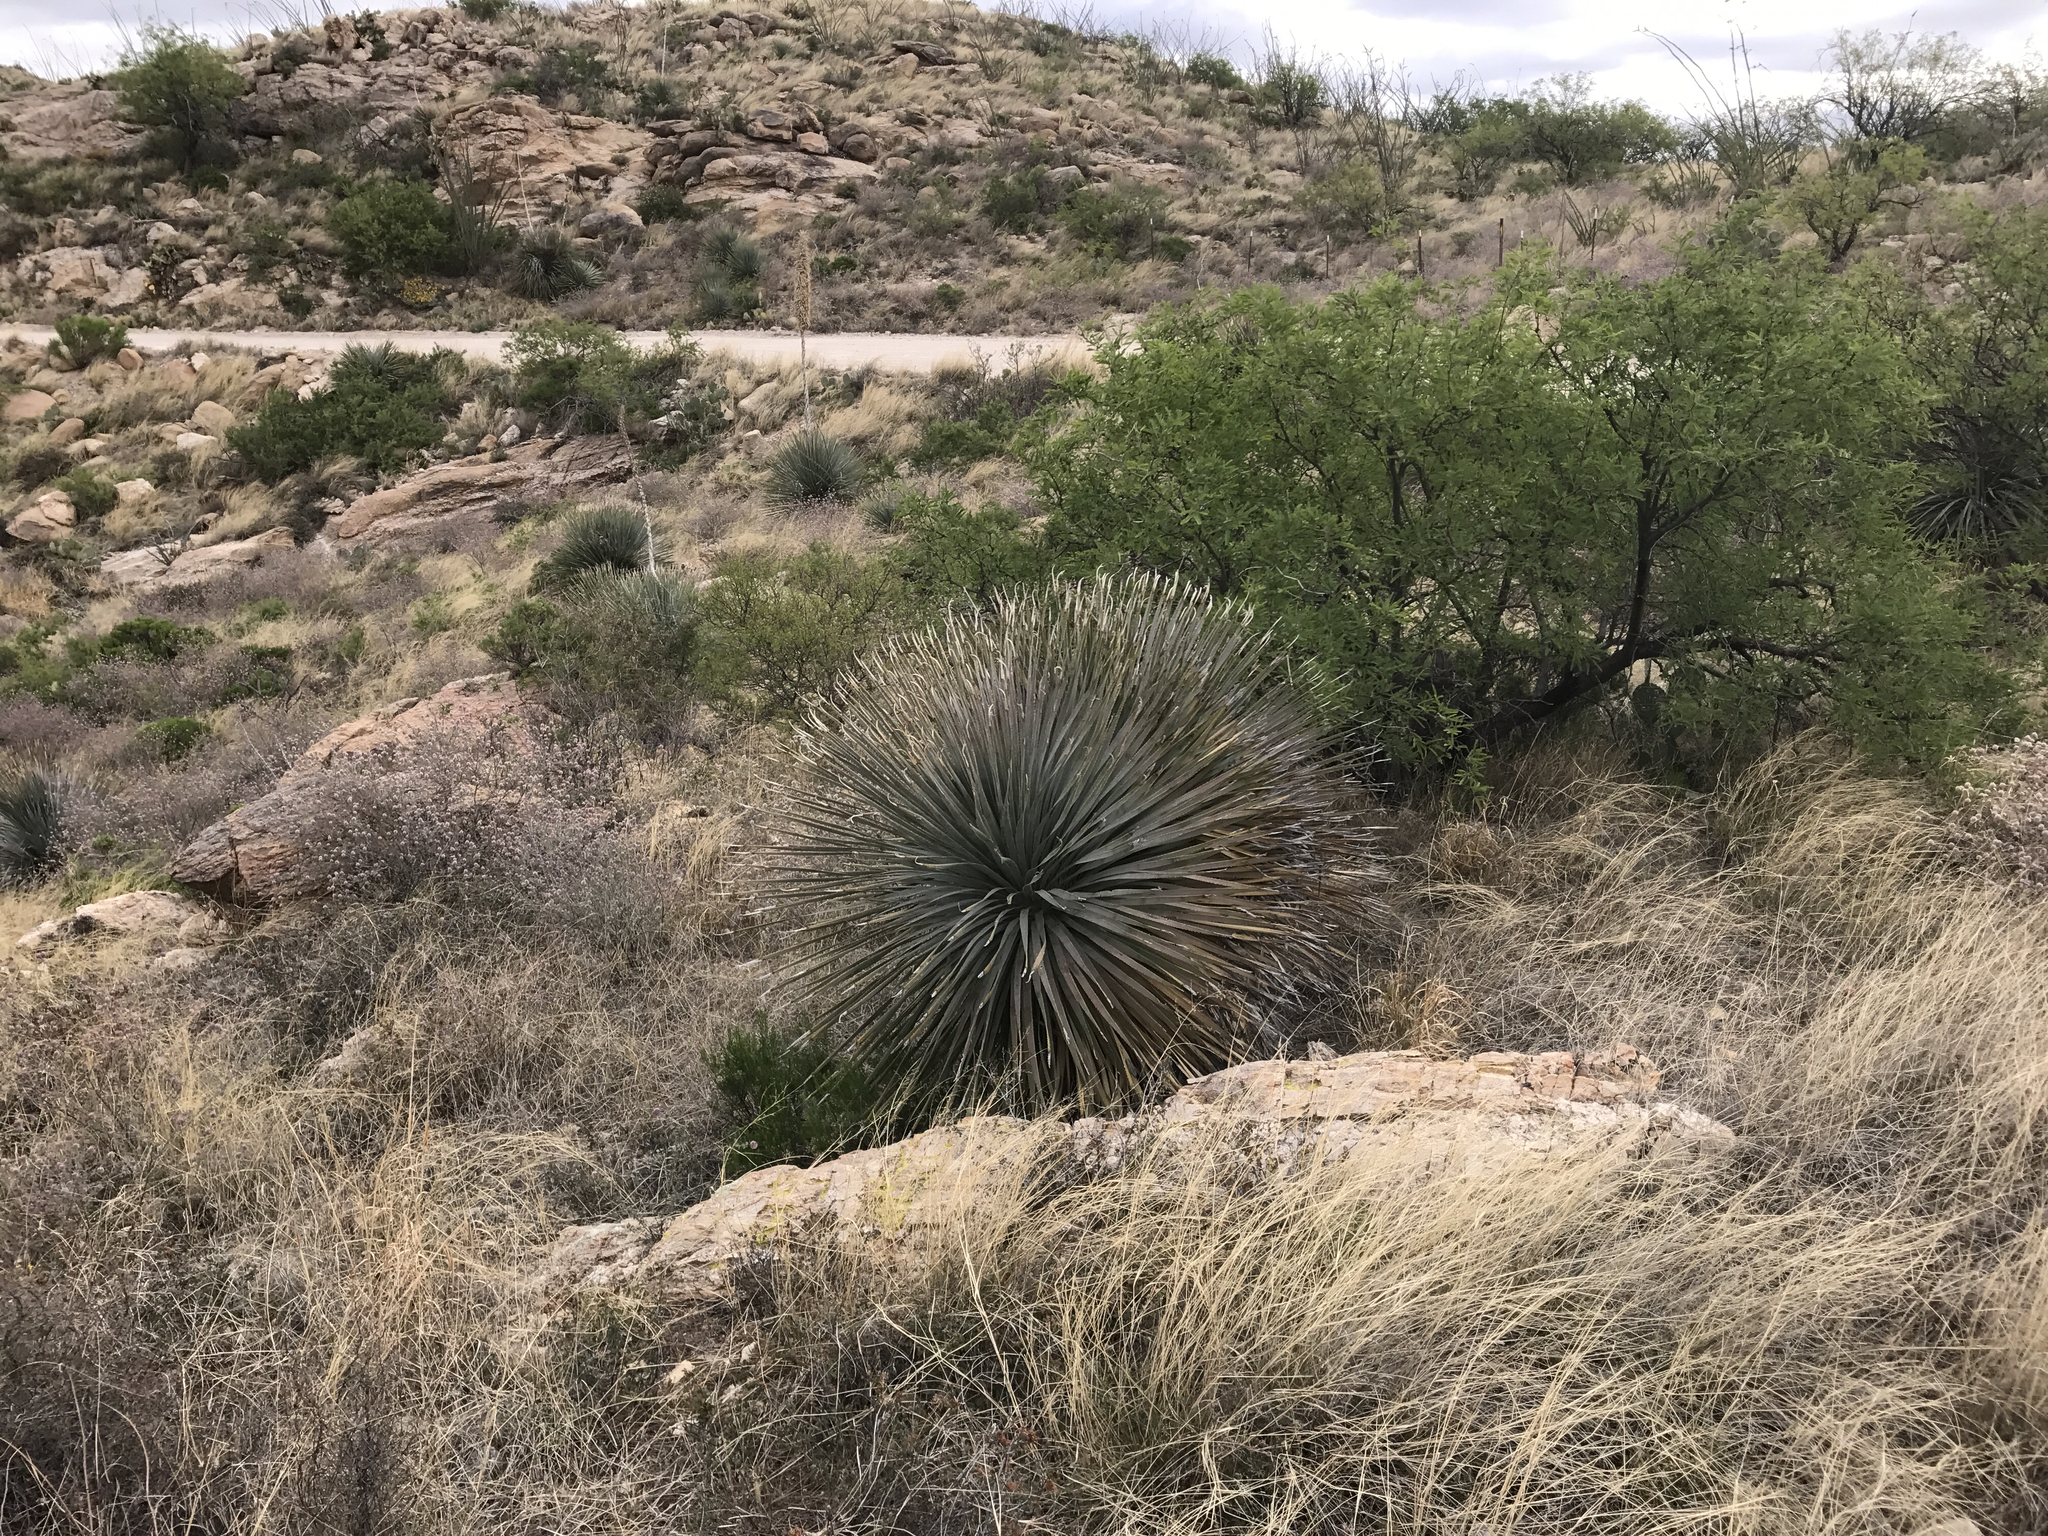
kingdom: Plantae
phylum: Tracheophyta
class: Liliopsida
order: Asparagales
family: Asparagaceae
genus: Dasylirion
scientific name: Dasylirion wheeleri
